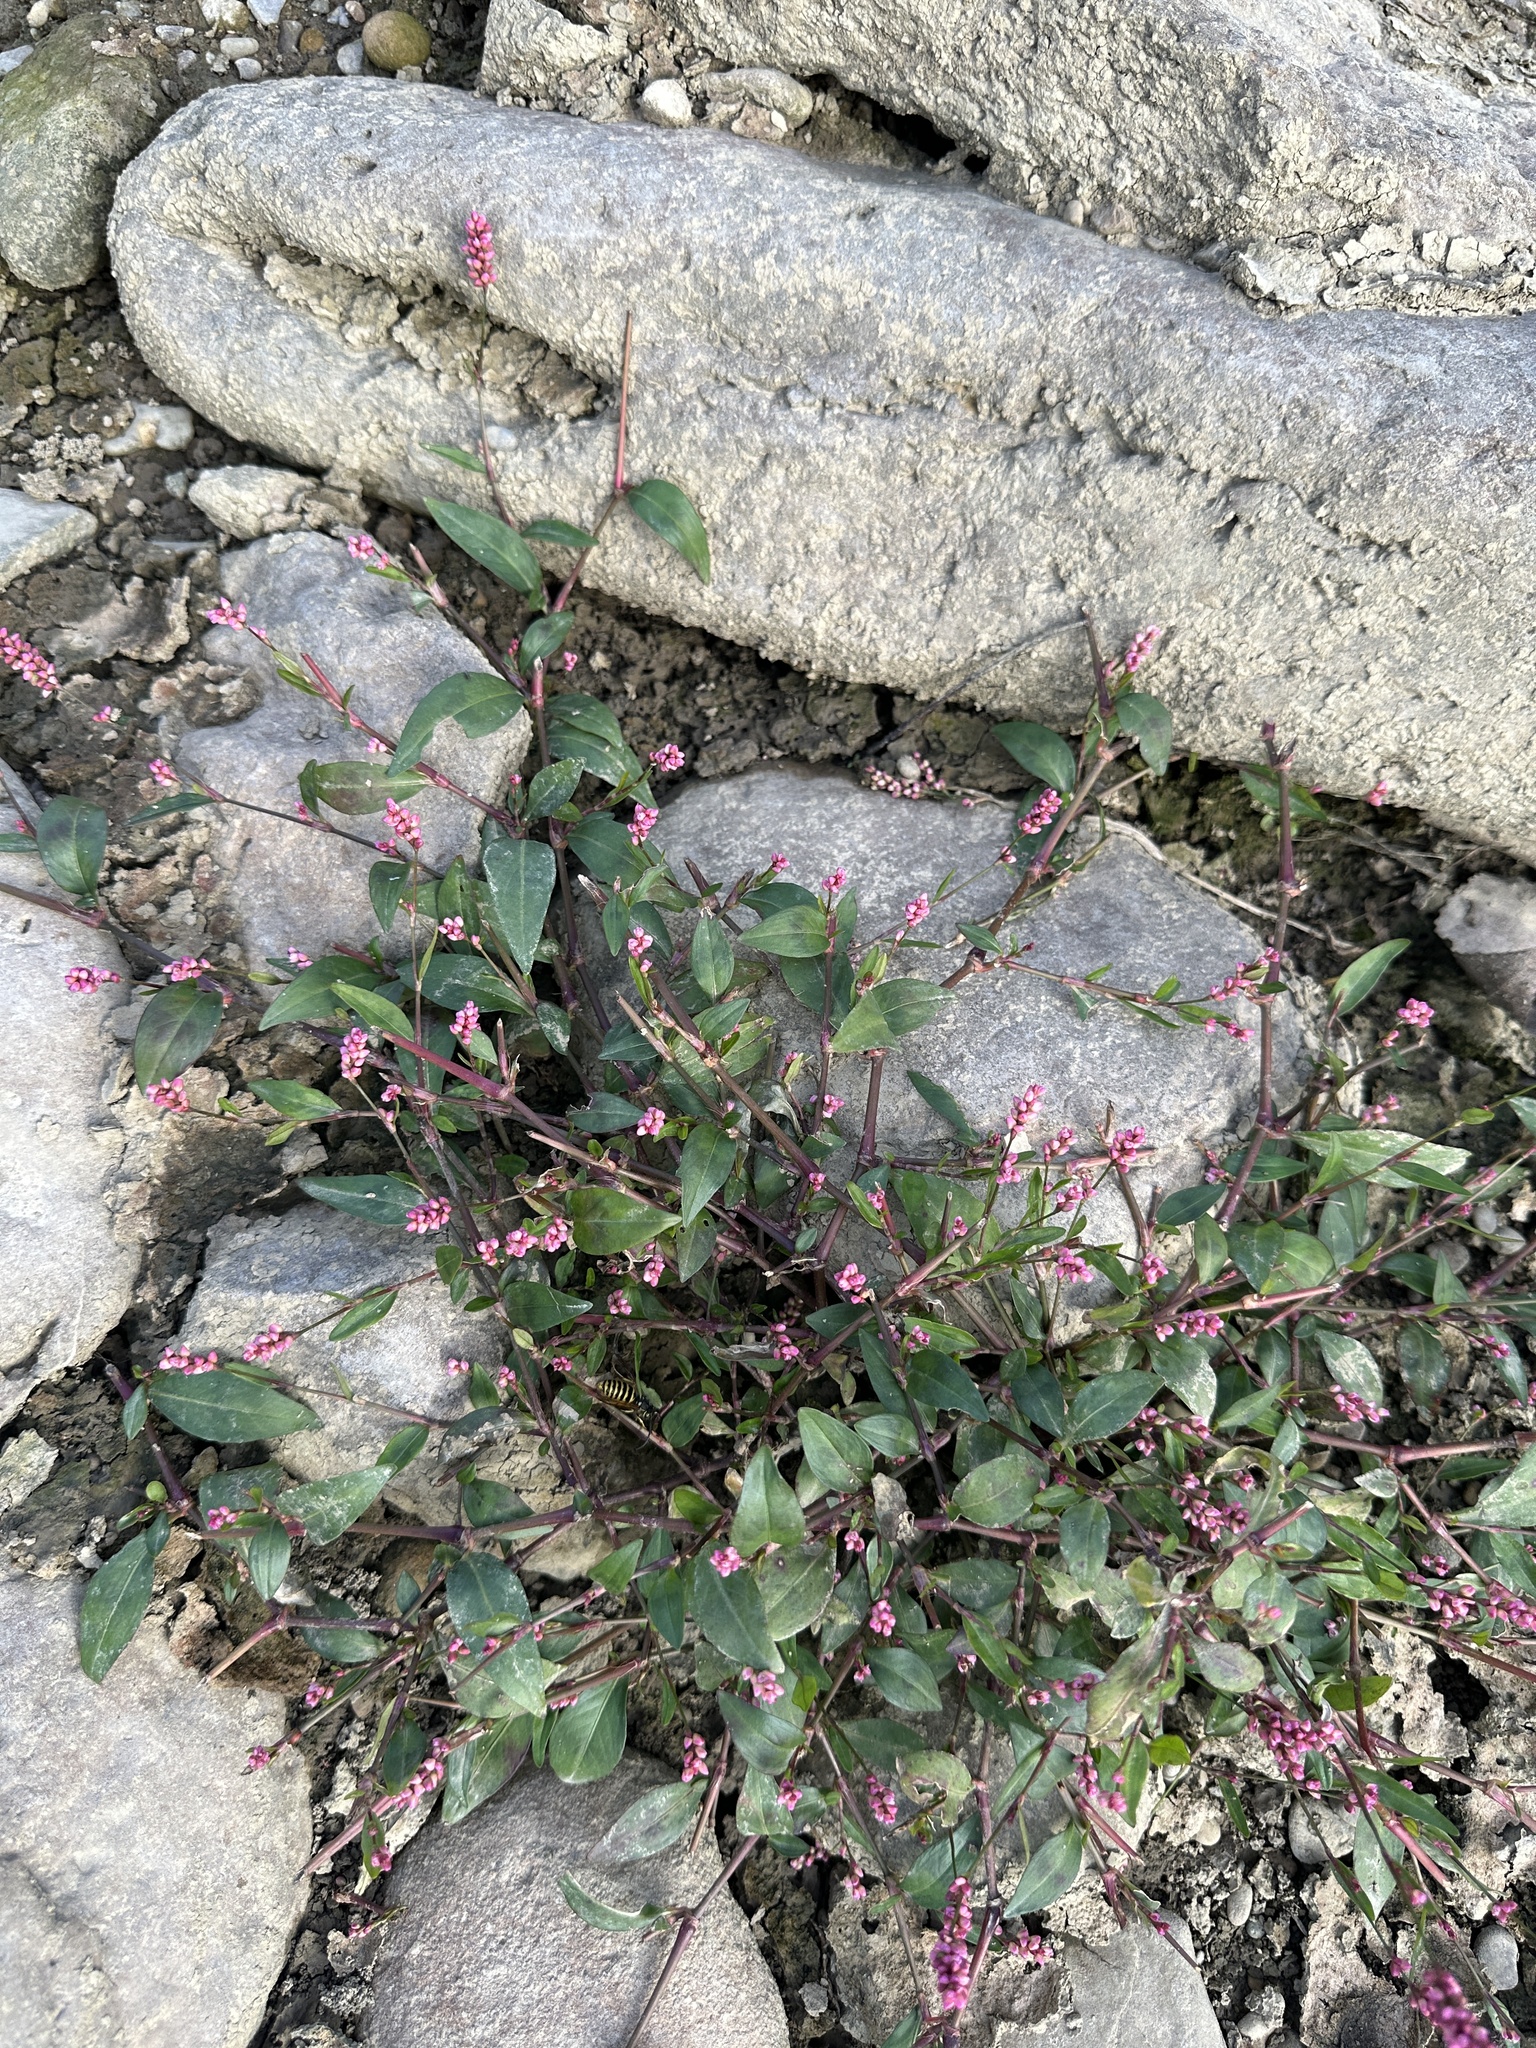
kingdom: Plantae
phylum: Tracheophyta
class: Magnoliopsida
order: Caryophyllales
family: Polygonaceae
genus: Persicaria
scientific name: Persicaria longiseta
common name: Bristly lady's-thumb
